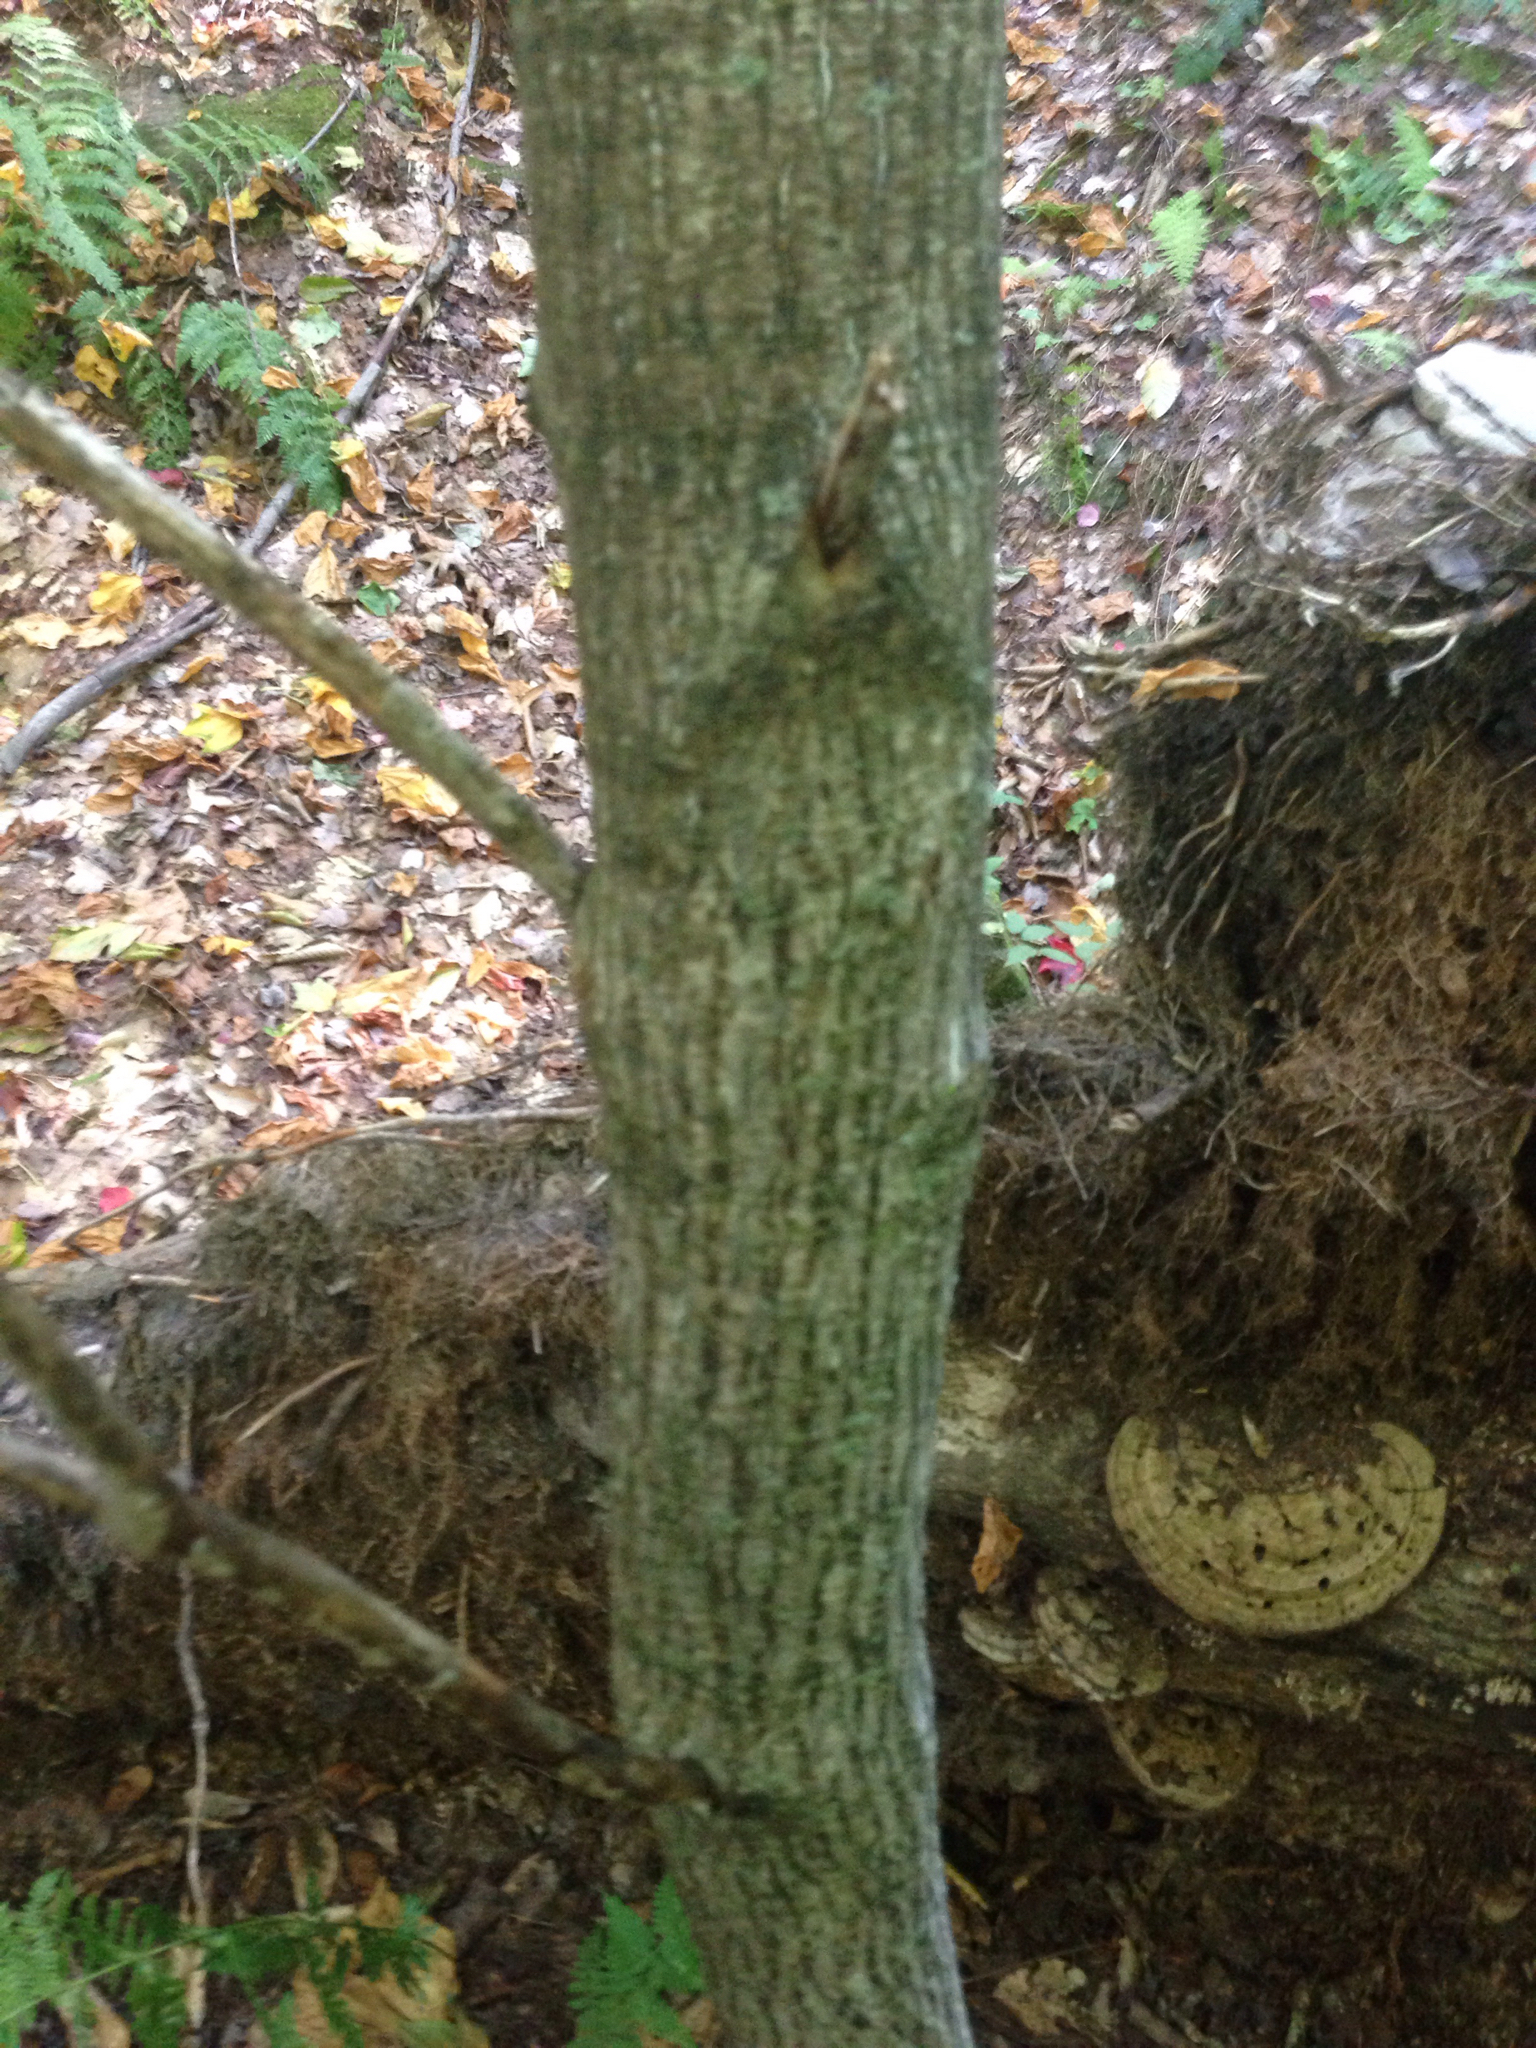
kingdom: Plantae
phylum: Tracheophyta
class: Magnoliopsida
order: Sapindales
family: Sapindaceae
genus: Acer
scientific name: Acer pensylvanicum
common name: Moosewood
